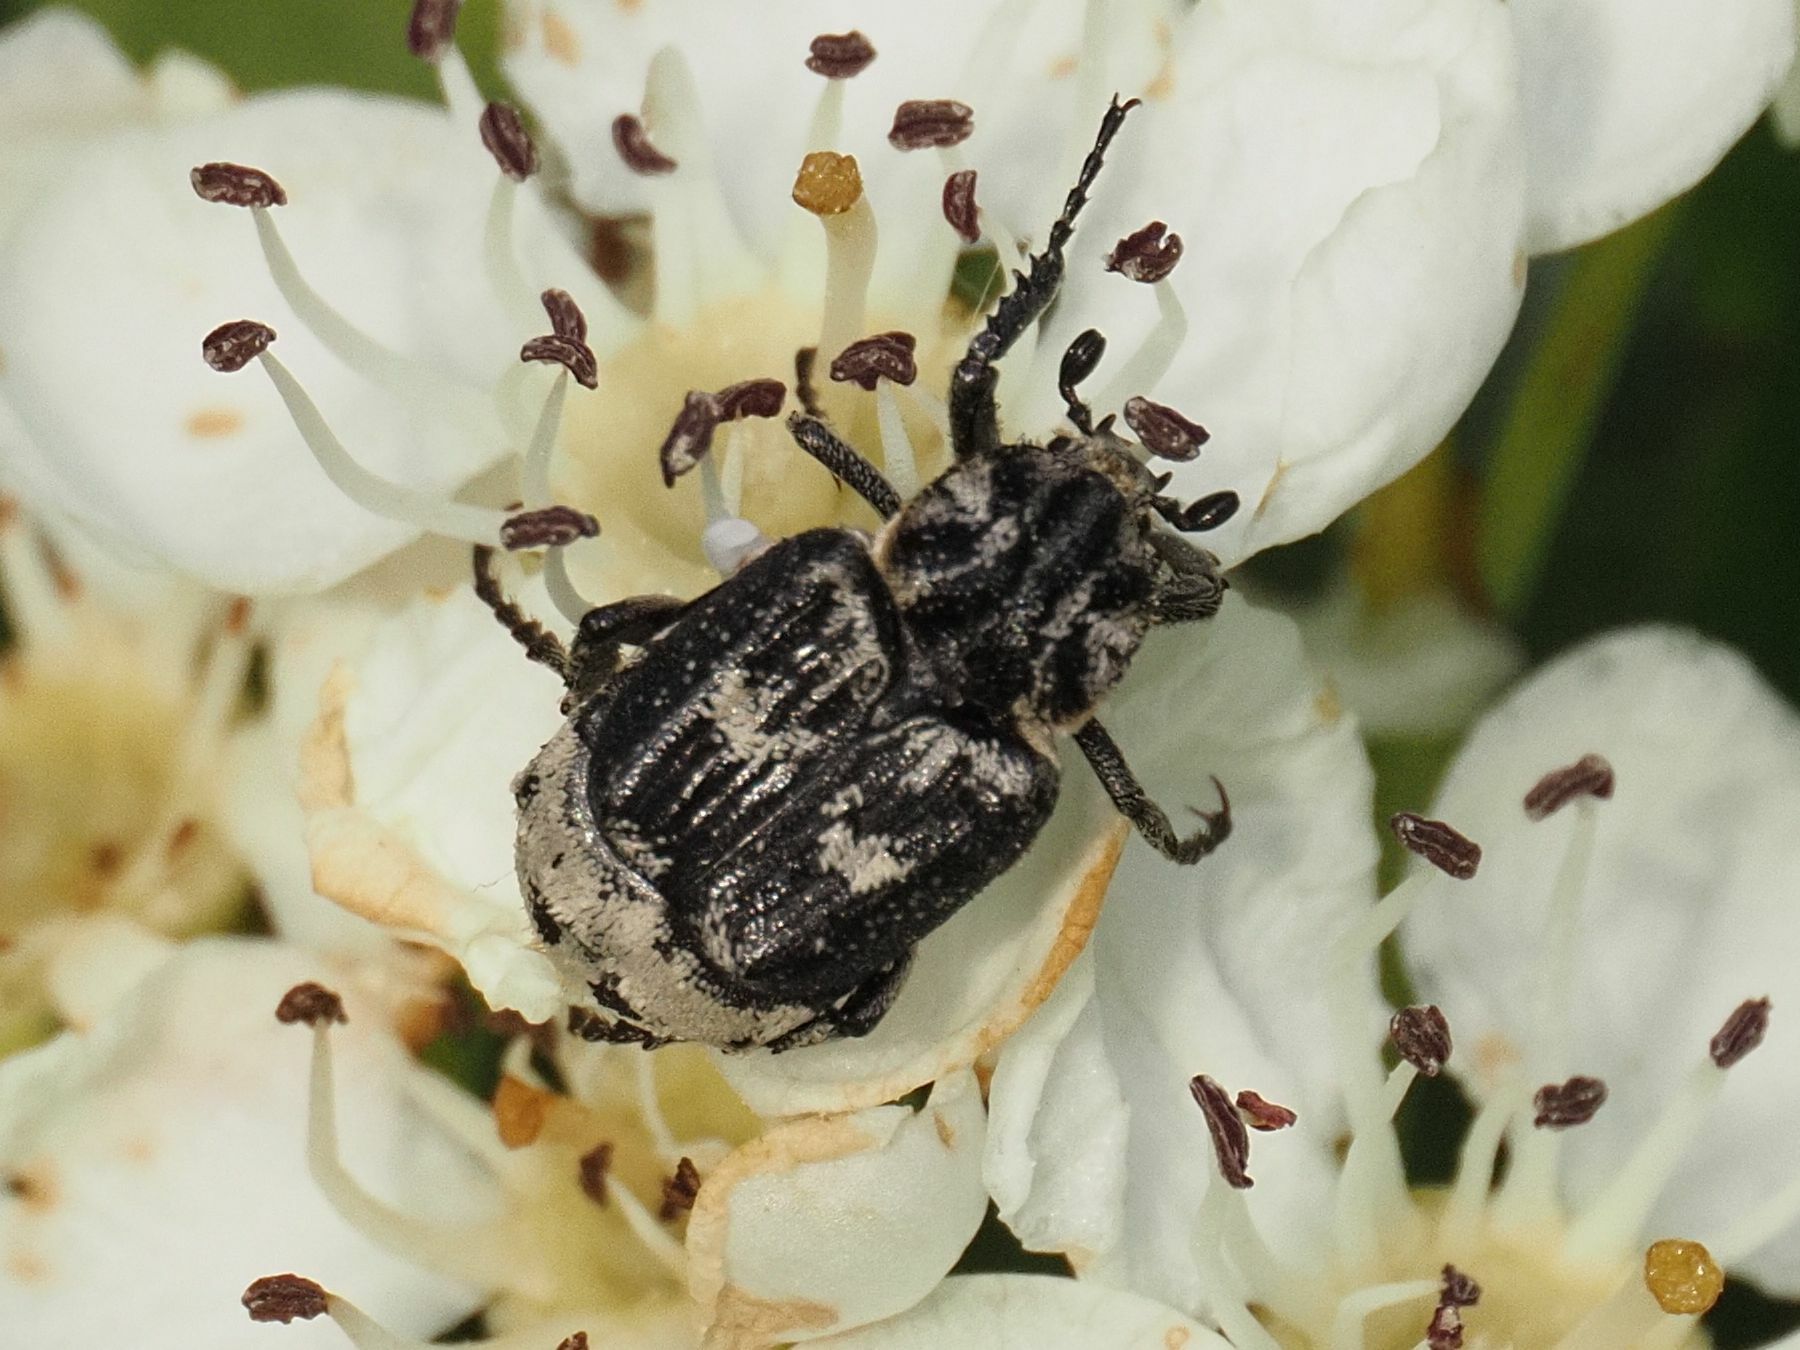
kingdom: Animalia
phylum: Arthropoda
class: Insecta
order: Coleoptera
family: Scarabaeidae
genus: Valgus
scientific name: Valgus hemipterus
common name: Bug flower chafer
